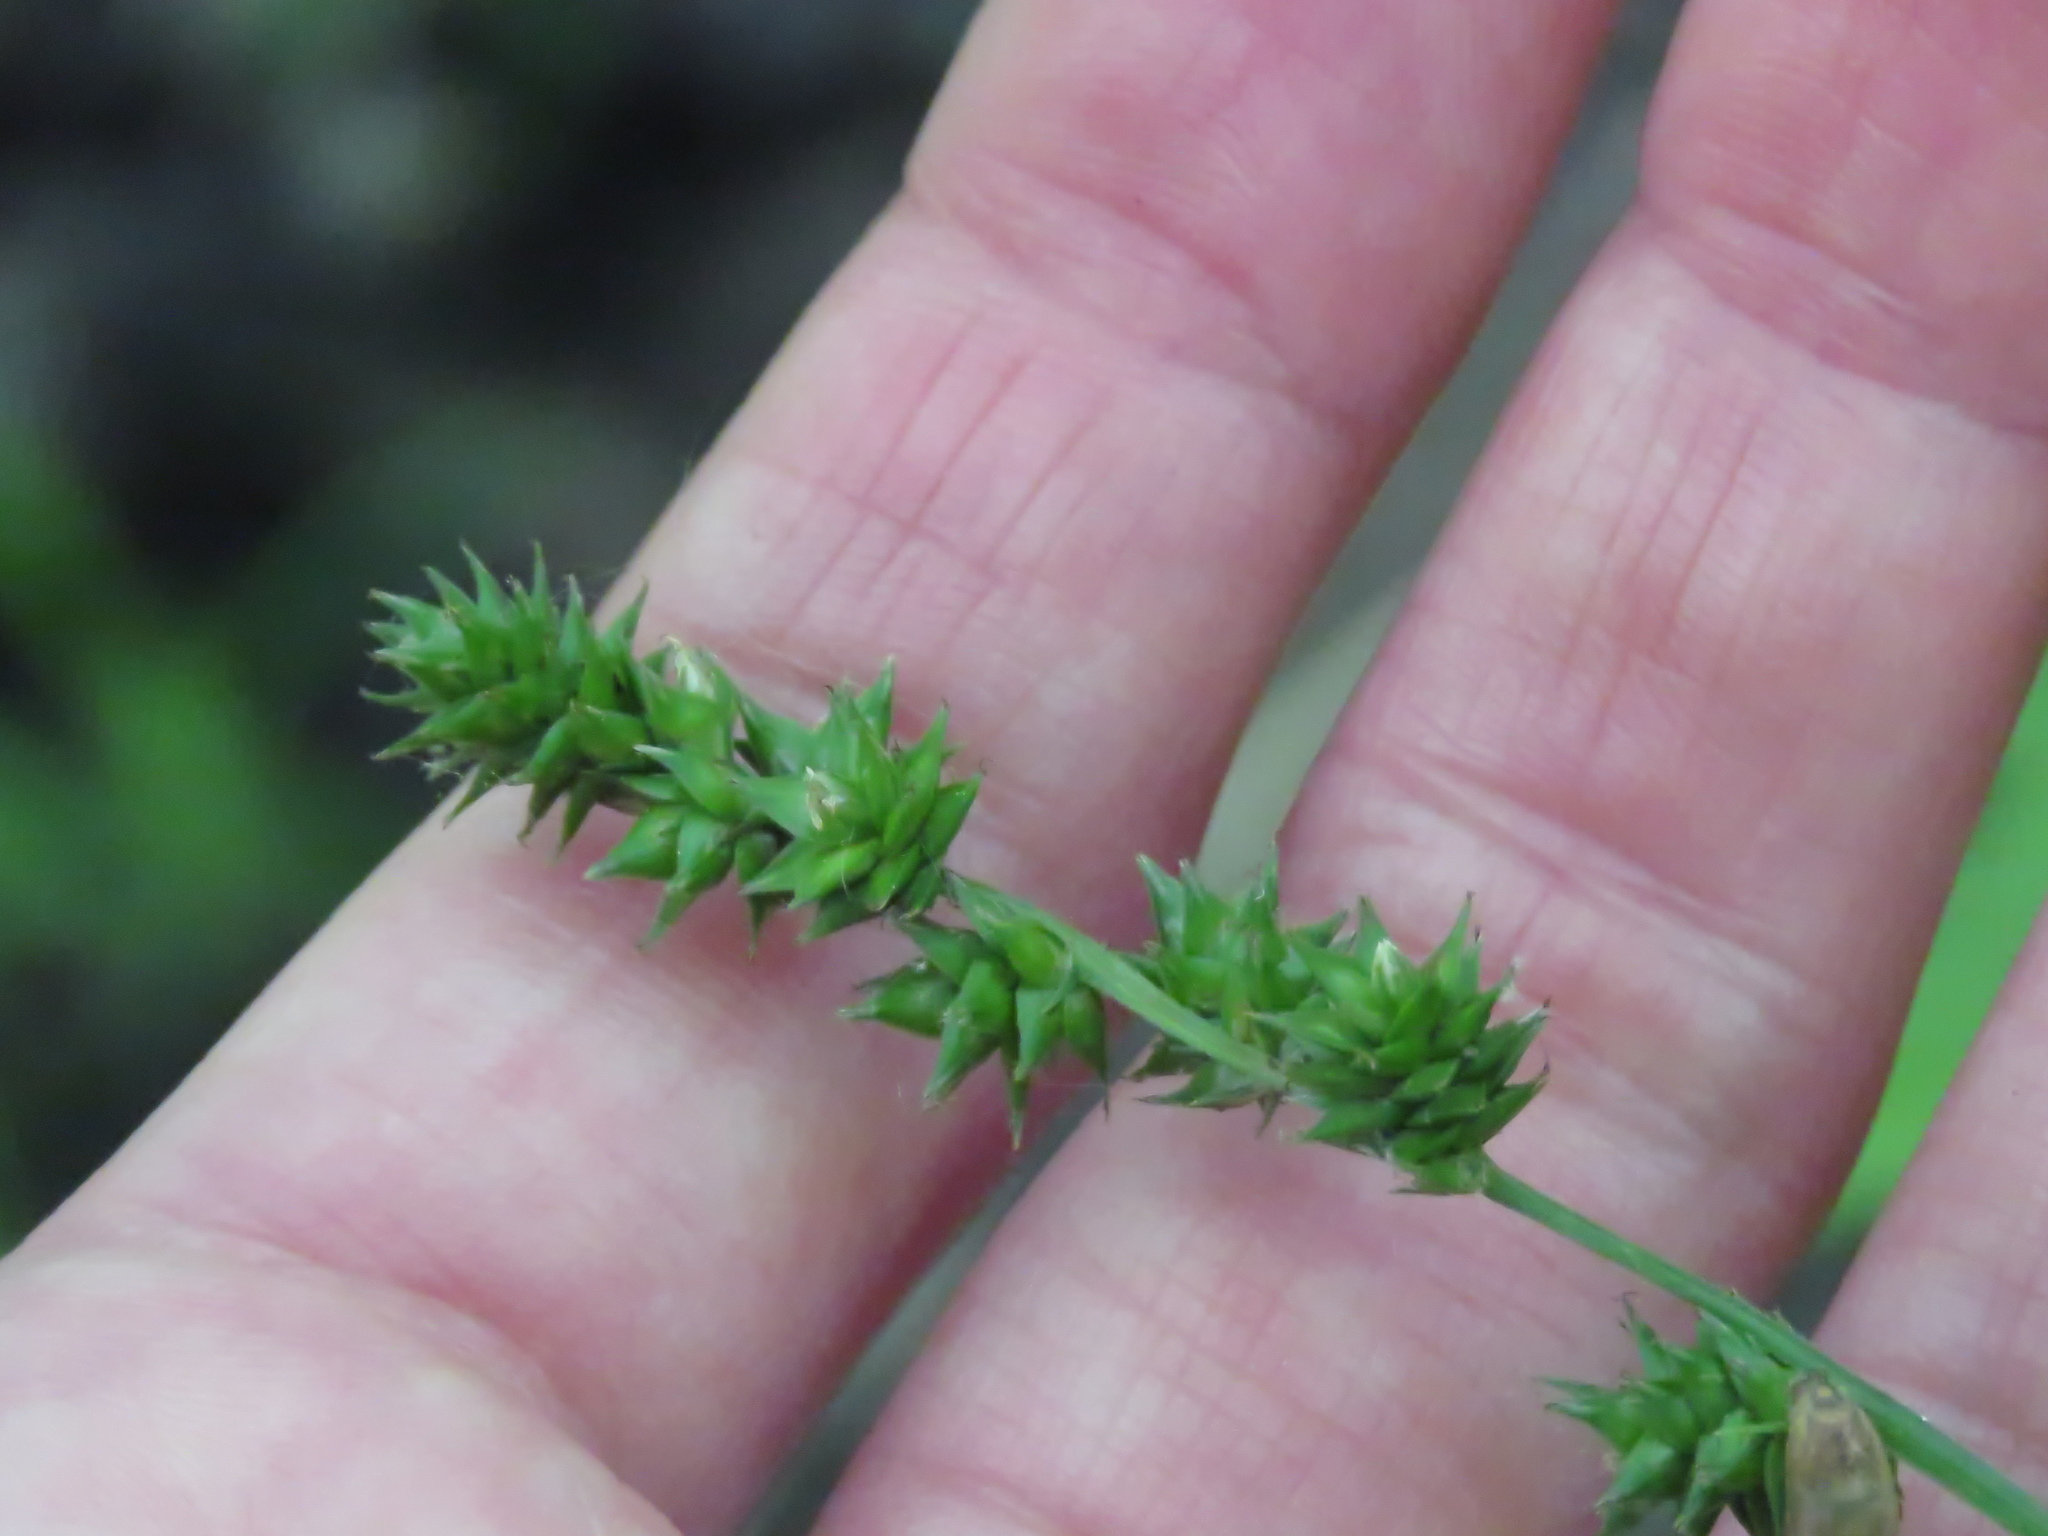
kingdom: Plantae
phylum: Tracheophyta
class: Liliopsida
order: Poales
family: Cyperaceae
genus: Carex
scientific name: Carex sparganioides
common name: Burreed sedge
